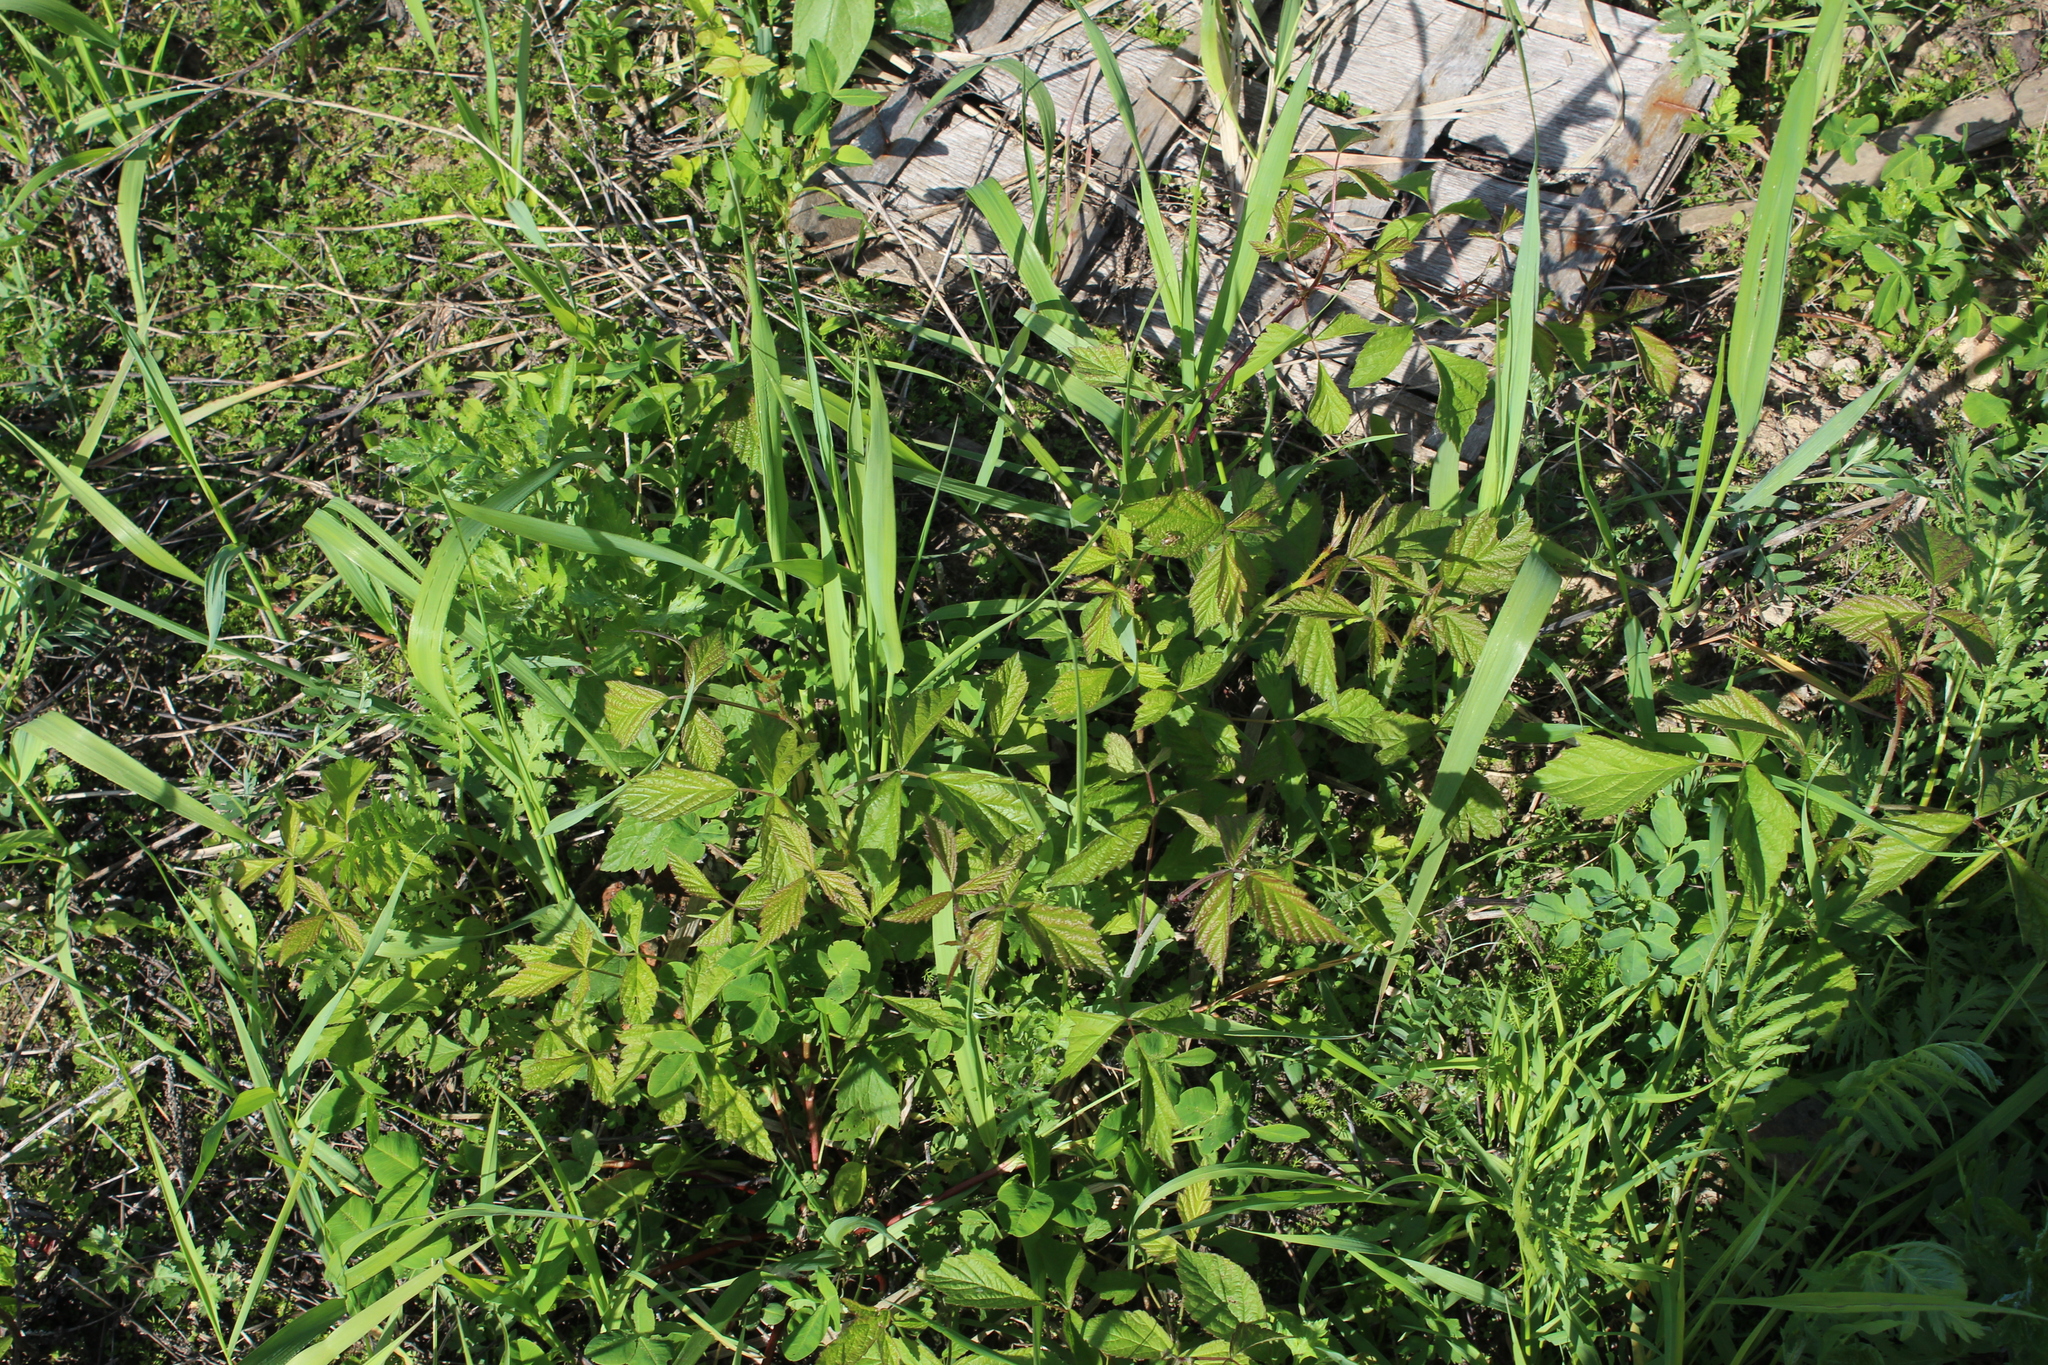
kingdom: Plantae
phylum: Tracheophyta
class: Magnoliopsida
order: Rosales
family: Rosaceae
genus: Rubus
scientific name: Rubus caesius
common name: Dewberry
